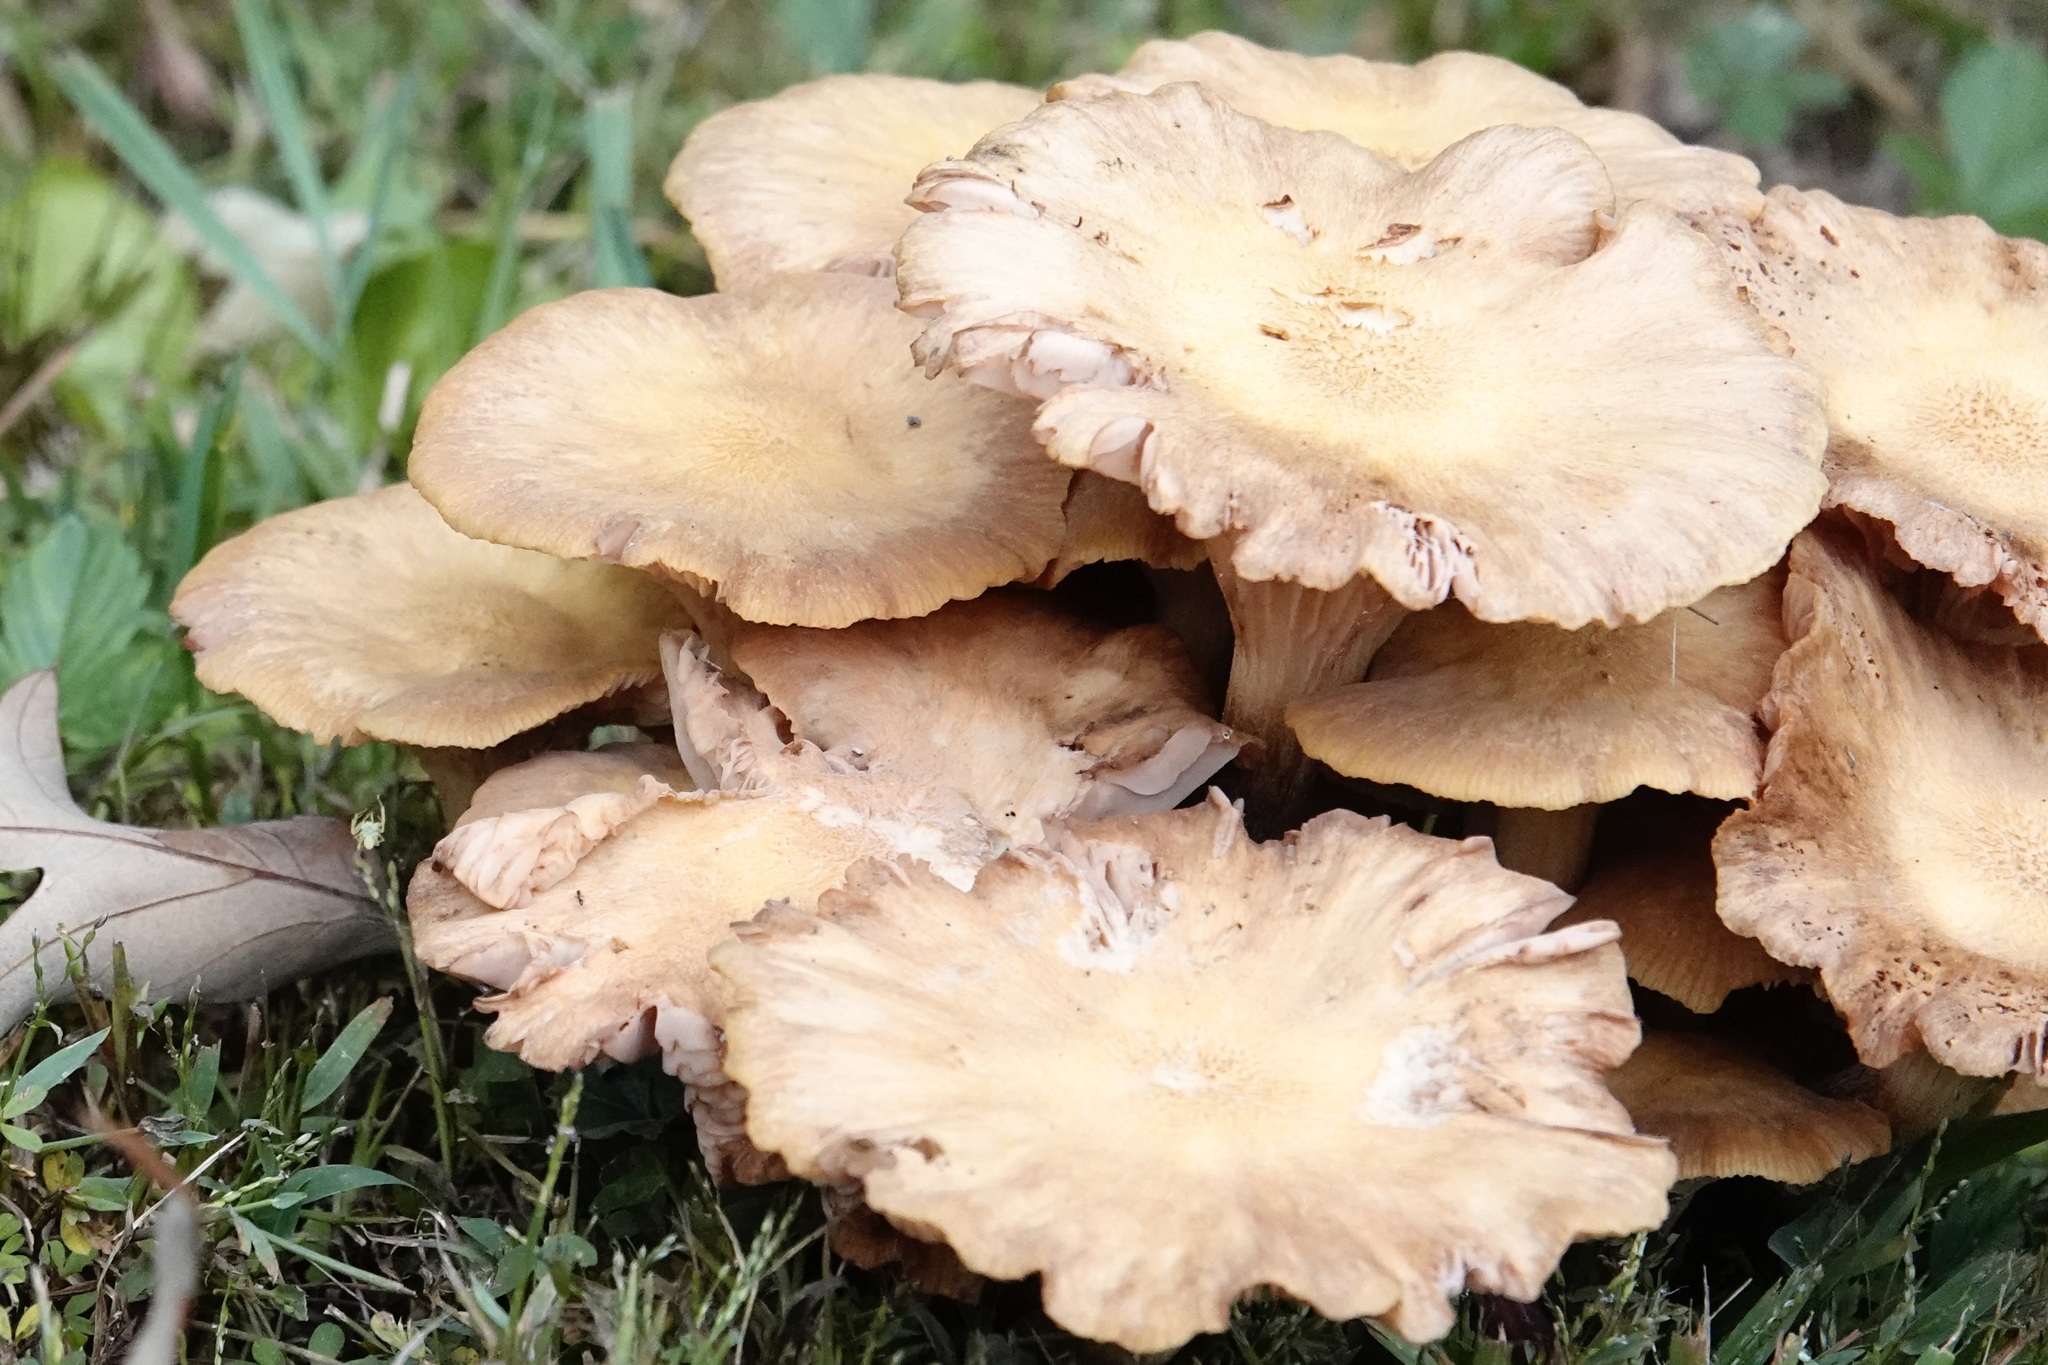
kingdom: Fungi
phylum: Basidiomycota
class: Agaricomycetes
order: Agaricales
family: Physalacriaceae
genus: Desarmillaria
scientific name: Desarmillaria caespitosa
